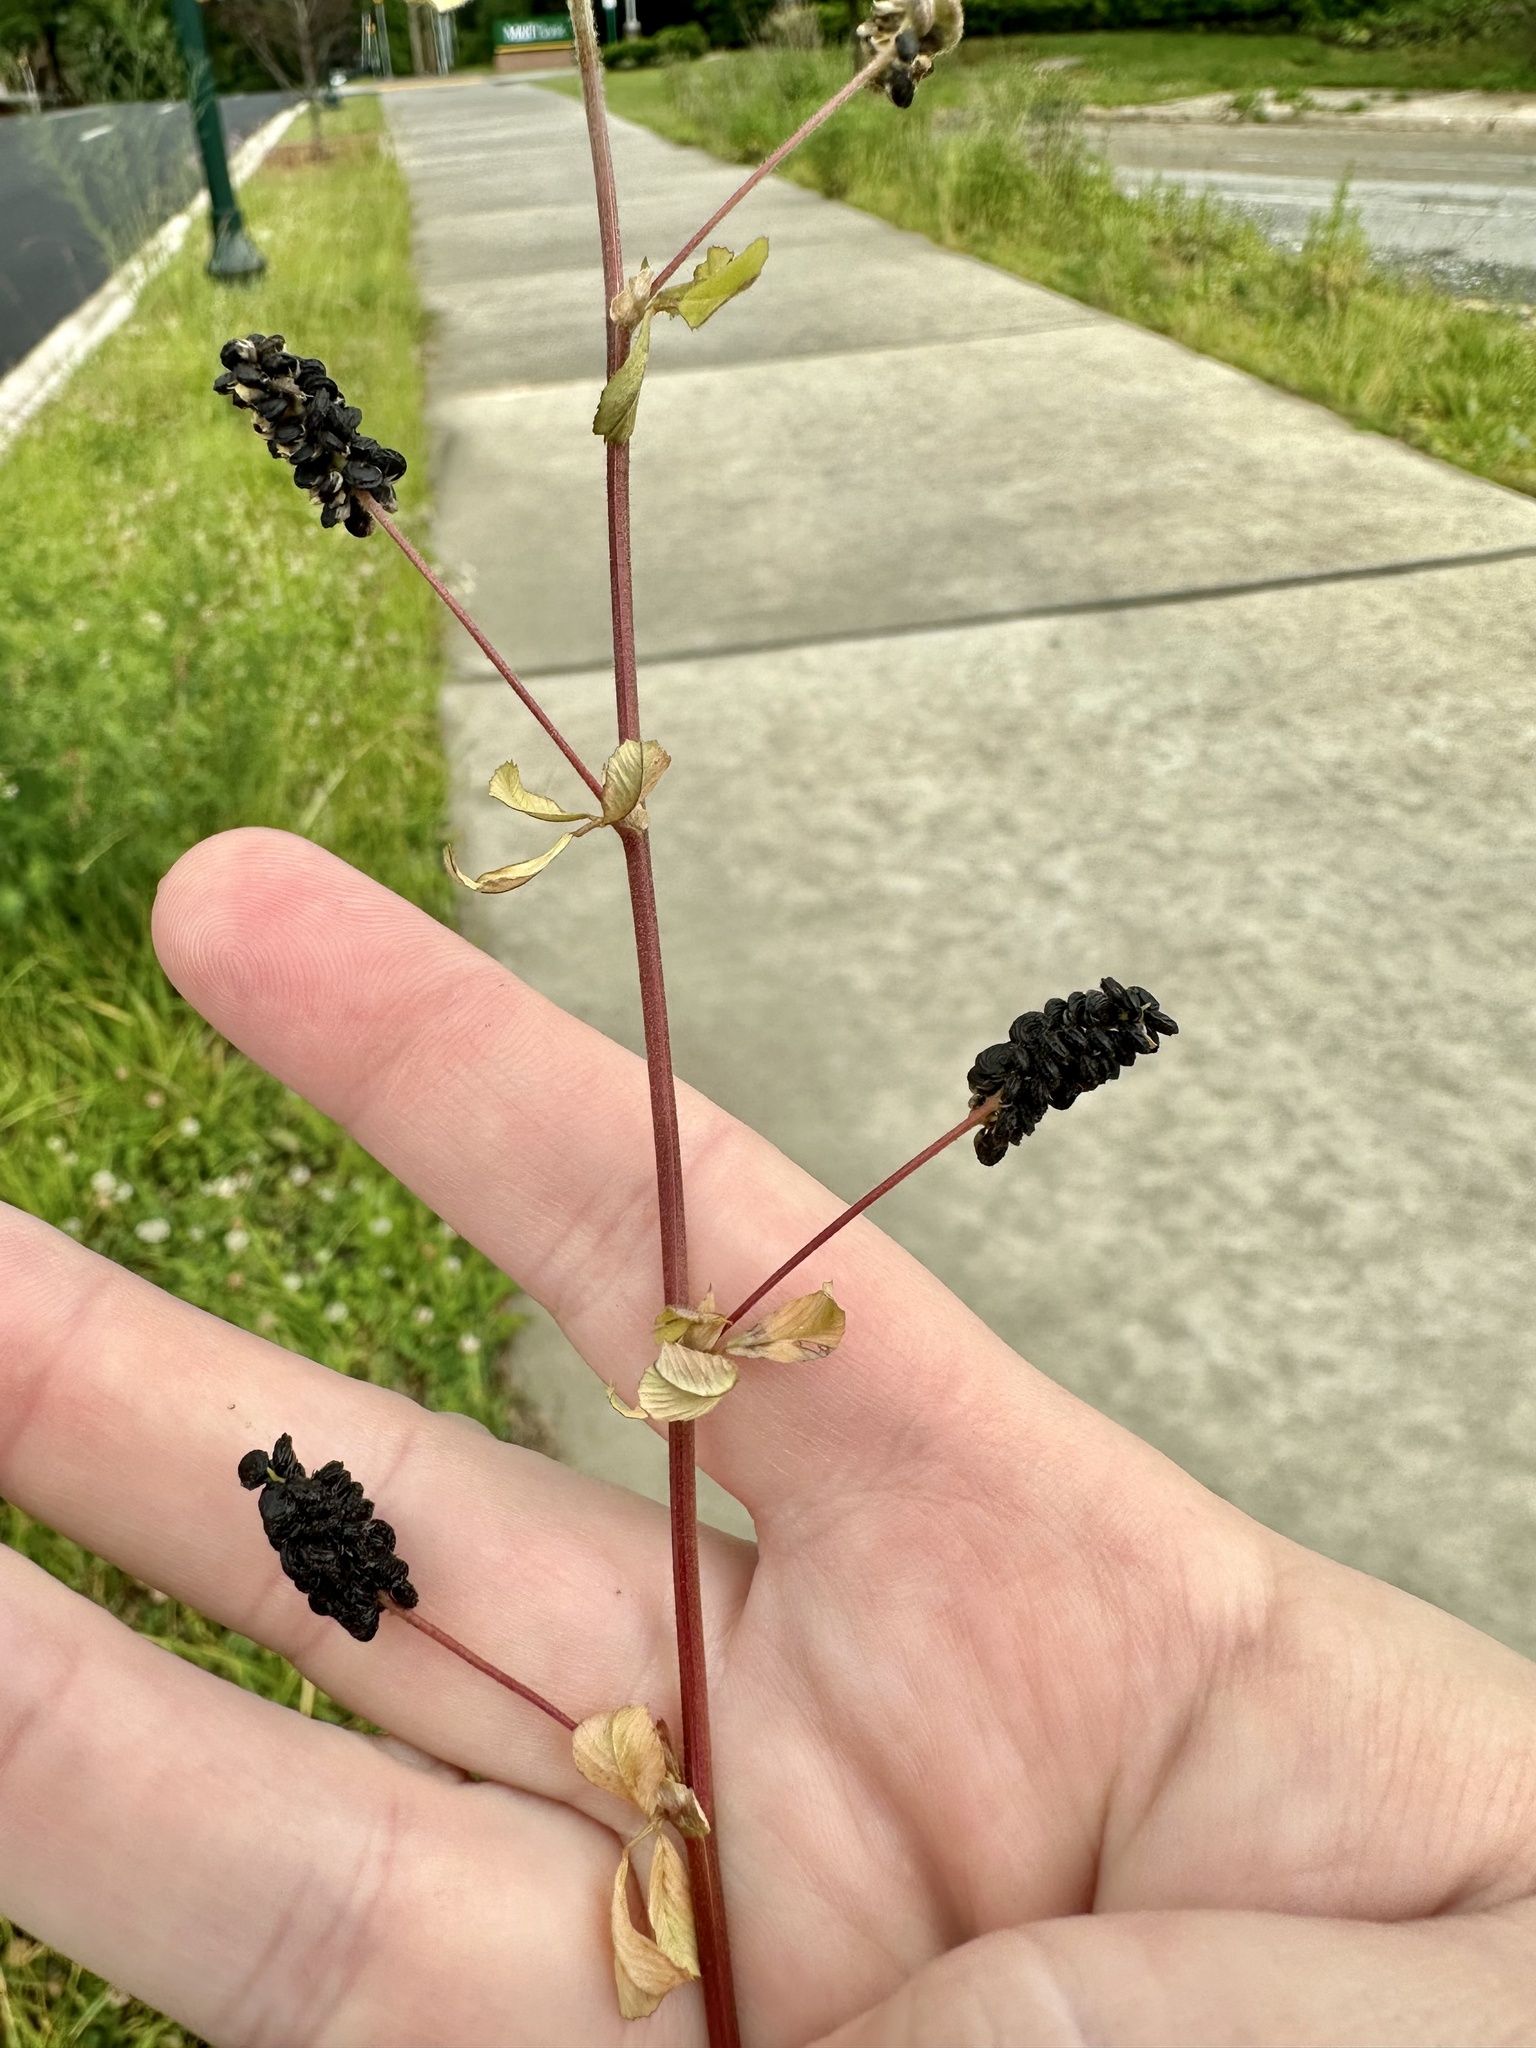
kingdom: Plantae
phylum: Tracheophyta
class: Magnoliopsida
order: Fabales
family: Fabaceae
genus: Medicago
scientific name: Medicago lupulina
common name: Black medick
